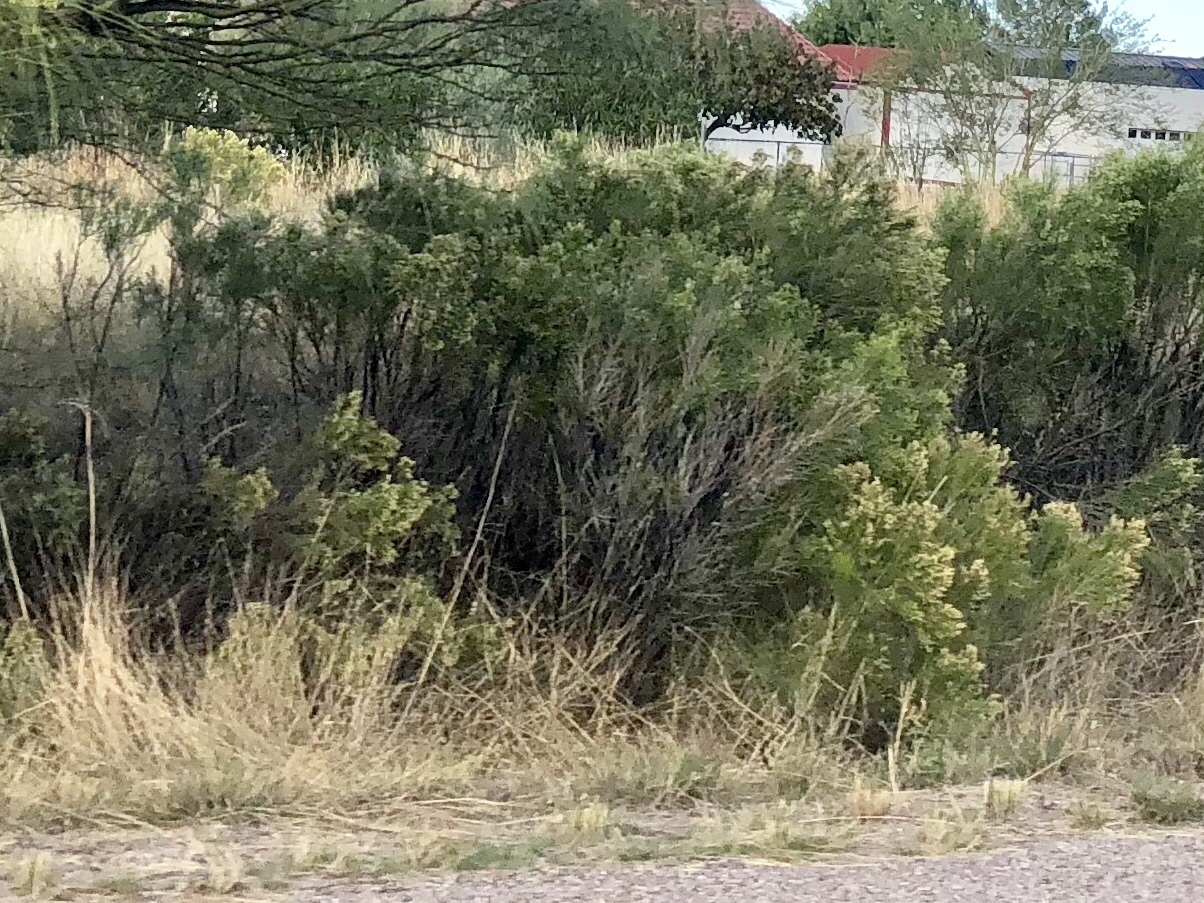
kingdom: Plantae
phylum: Tracheophyta
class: Magnoliopsida
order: Asterales
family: Asteraceae
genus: Baccharis
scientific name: Baccharis sarothroides
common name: Desert-broom
